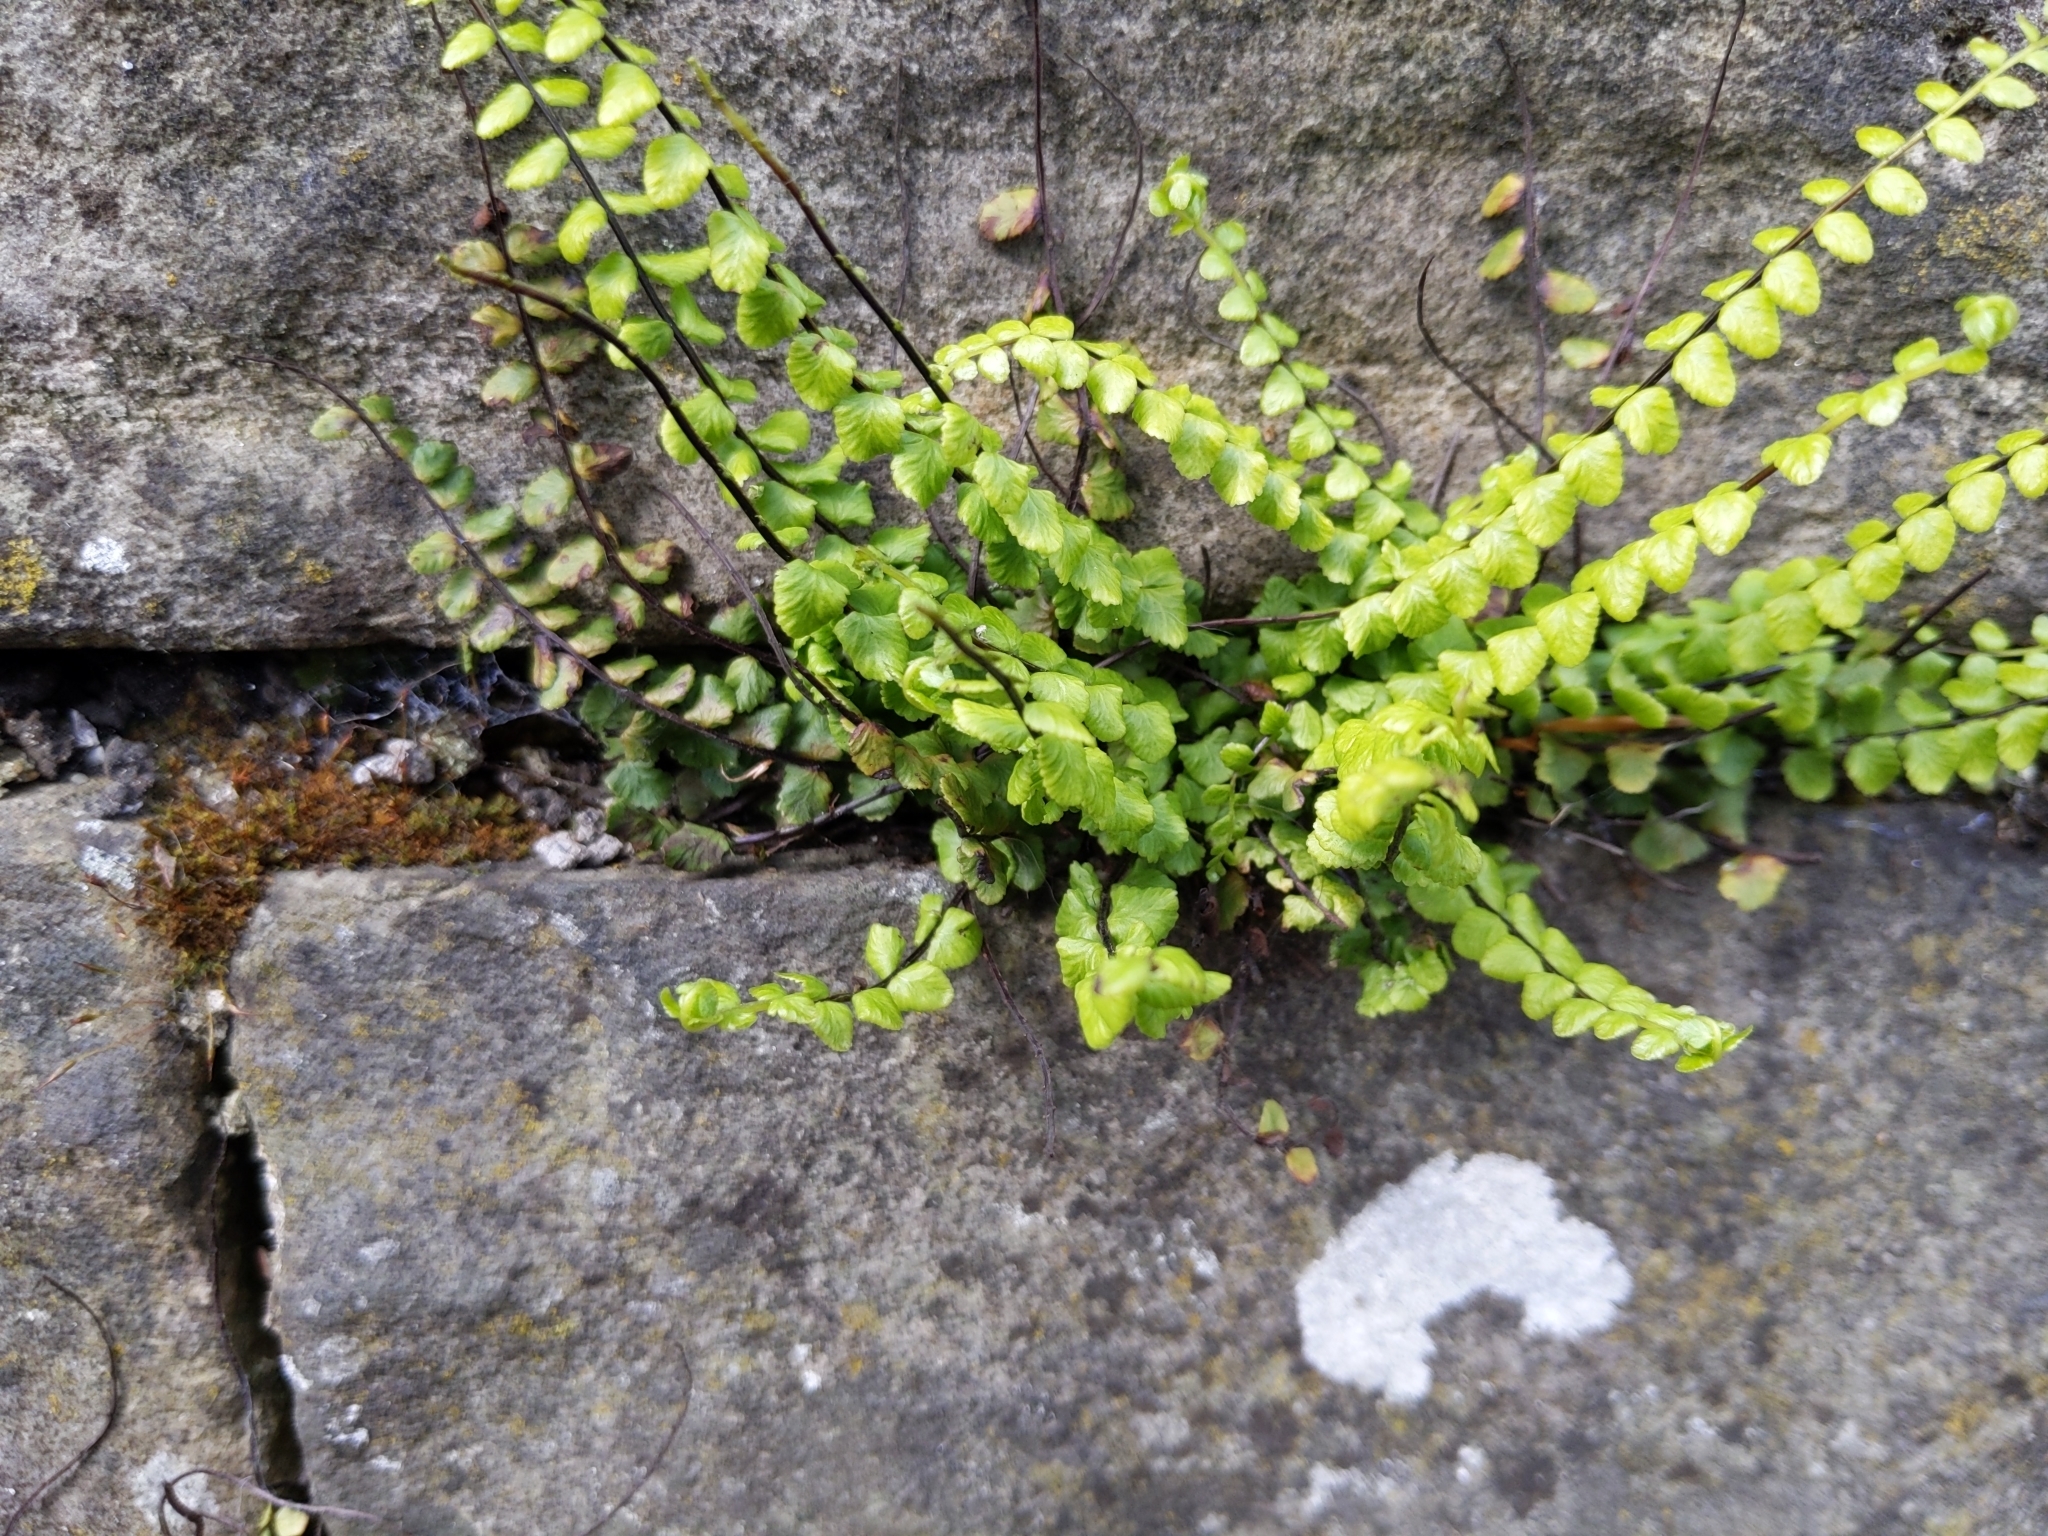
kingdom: Plantae
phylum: Tracheophyta
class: Polypodiopsida
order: Polypodiales
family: Aspleniaceae
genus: Asplenium
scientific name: Asplenium trichomanes
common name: Maidenhair spleenwort
